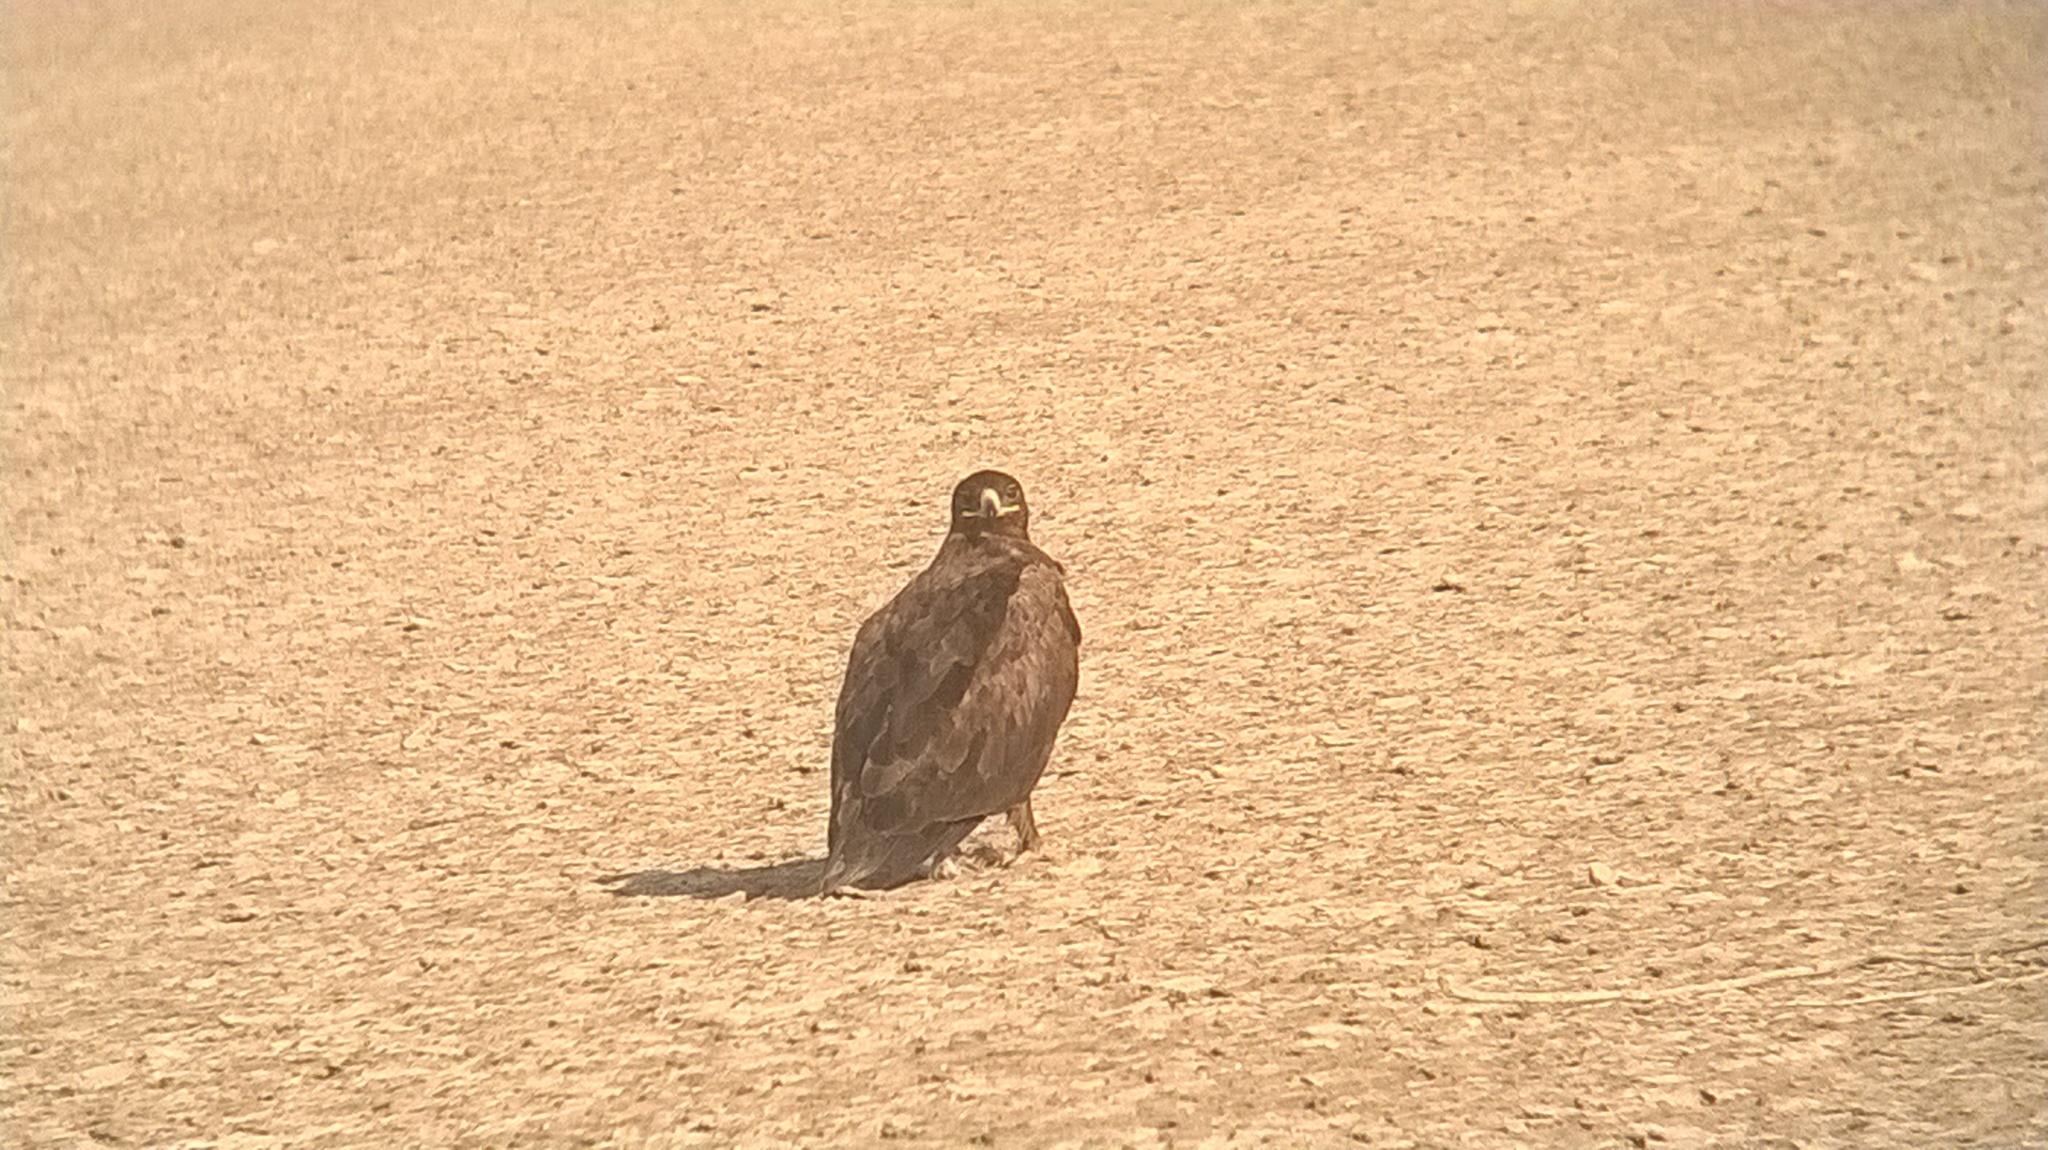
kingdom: Animalia
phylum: Chordata
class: Aves
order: Accipitriformes
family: Accipitridae
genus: Aquila
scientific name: Aquila nipalensis
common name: Steppe eagle
